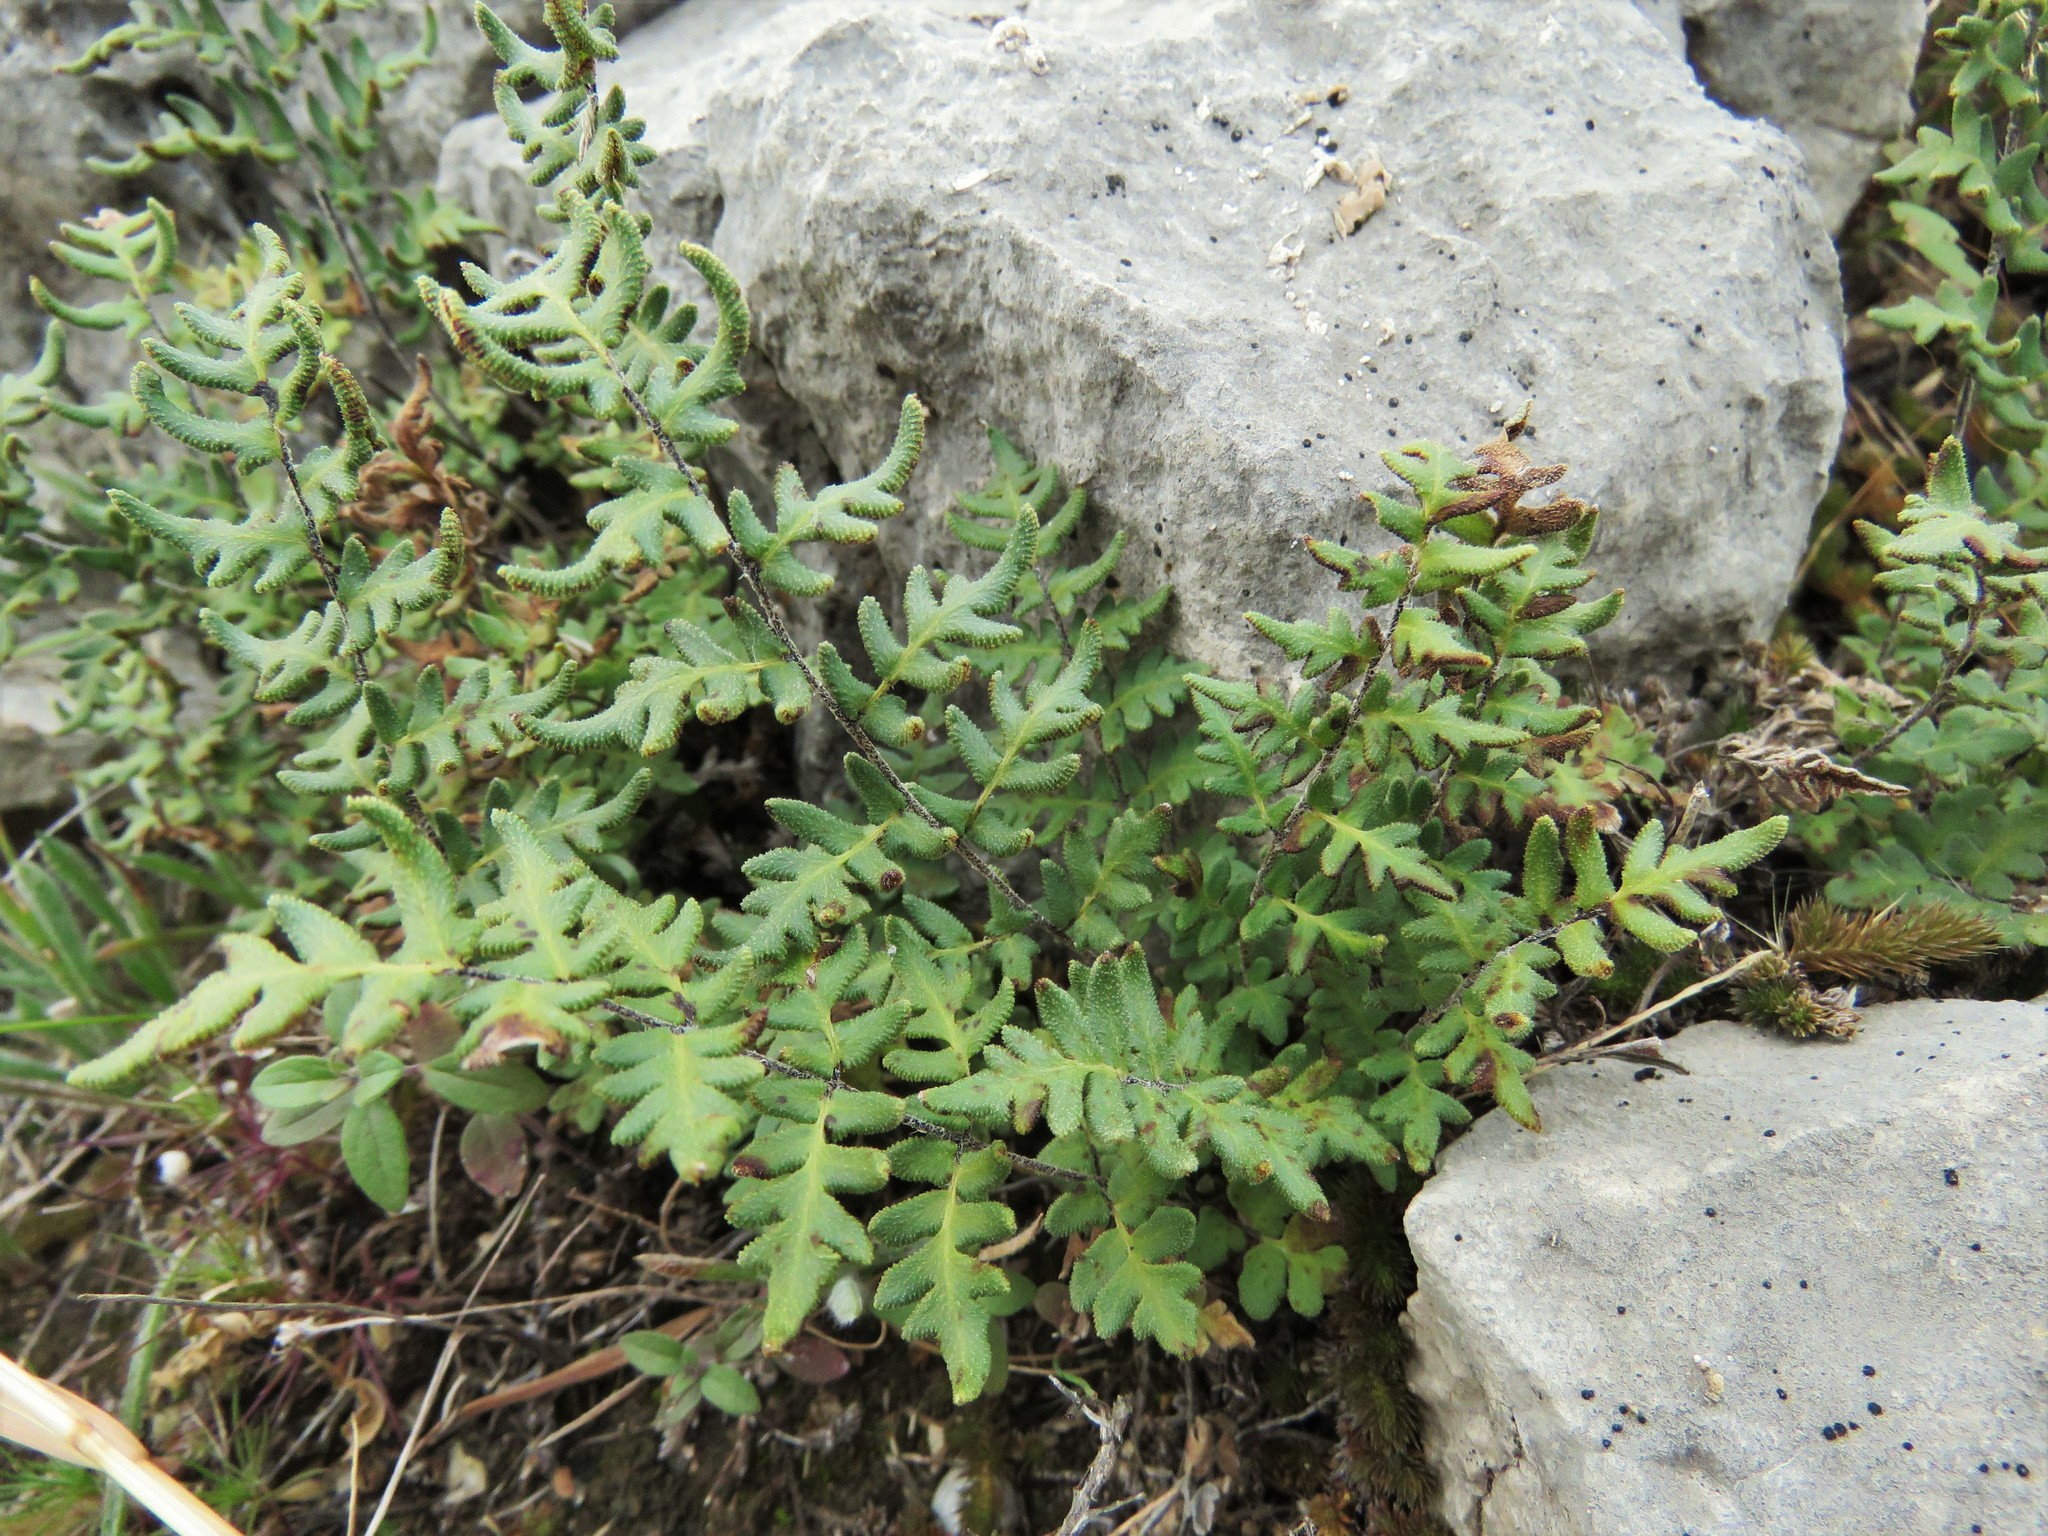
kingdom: Plantae
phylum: Tracheophyta
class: Polypodiopsida
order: Polypodiales
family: Pteridaceae
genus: Myriopteris
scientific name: Myriopteris scabra
